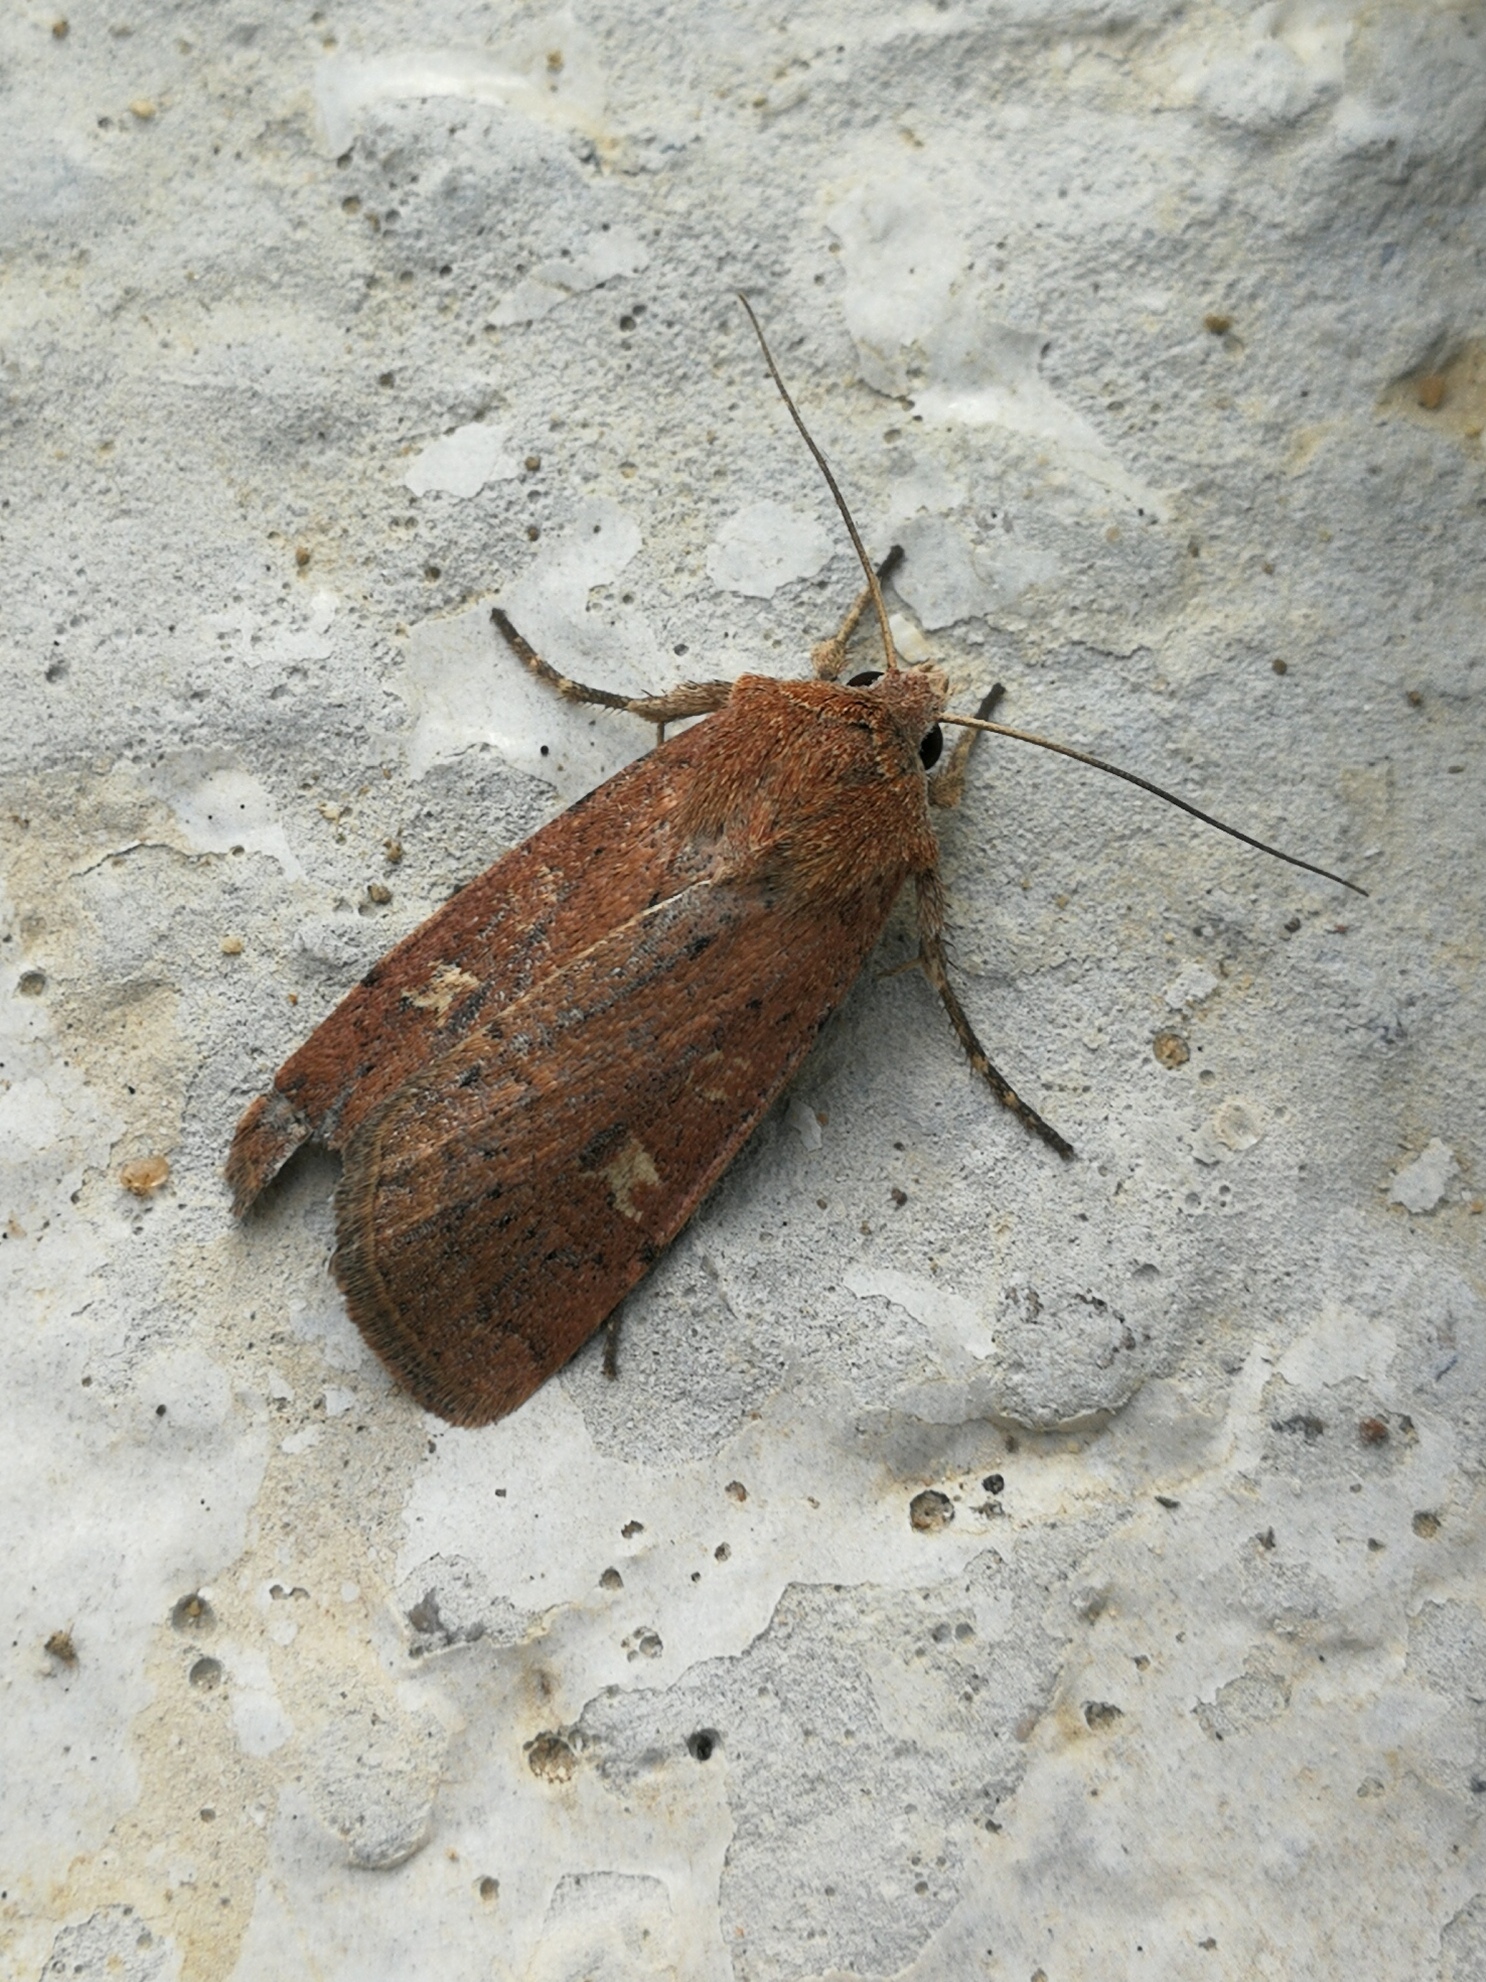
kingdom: Animalia
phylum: Arthropoda
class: Insecta
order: Lepidoptera
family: Noctuidae
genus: Xestia
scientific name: Xestia xanthographa
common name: Square-spot rustic
